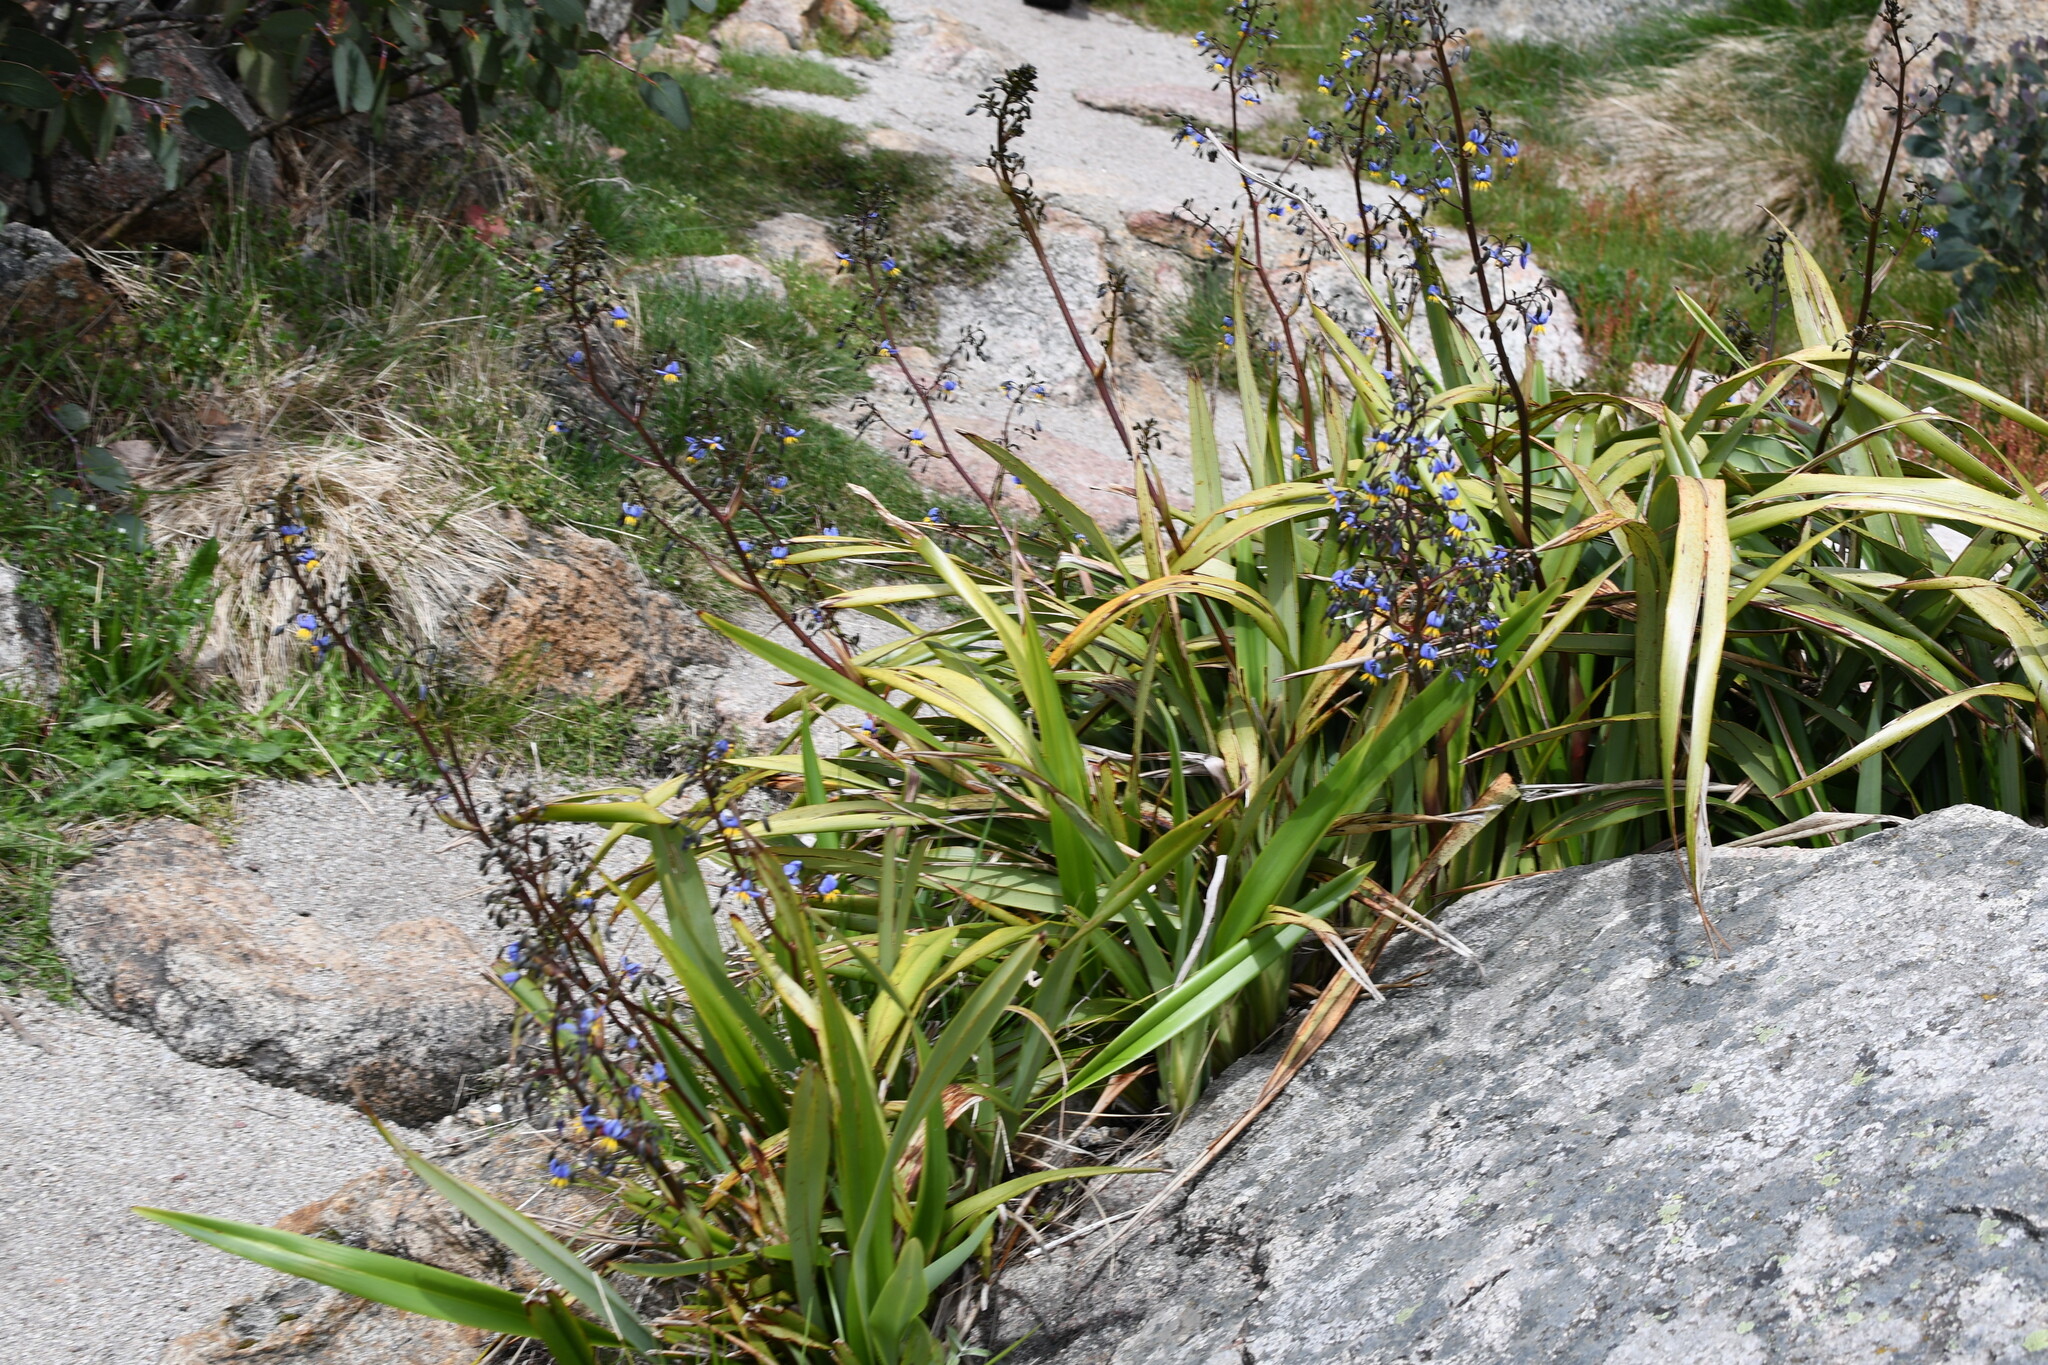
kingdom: Plantae
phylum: Tracheophyta
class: Liliopsida
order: Asparagales
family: Asphodelaceae
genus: Dianella
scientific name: Dianella tasmanica
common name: Tasman flax-lily
